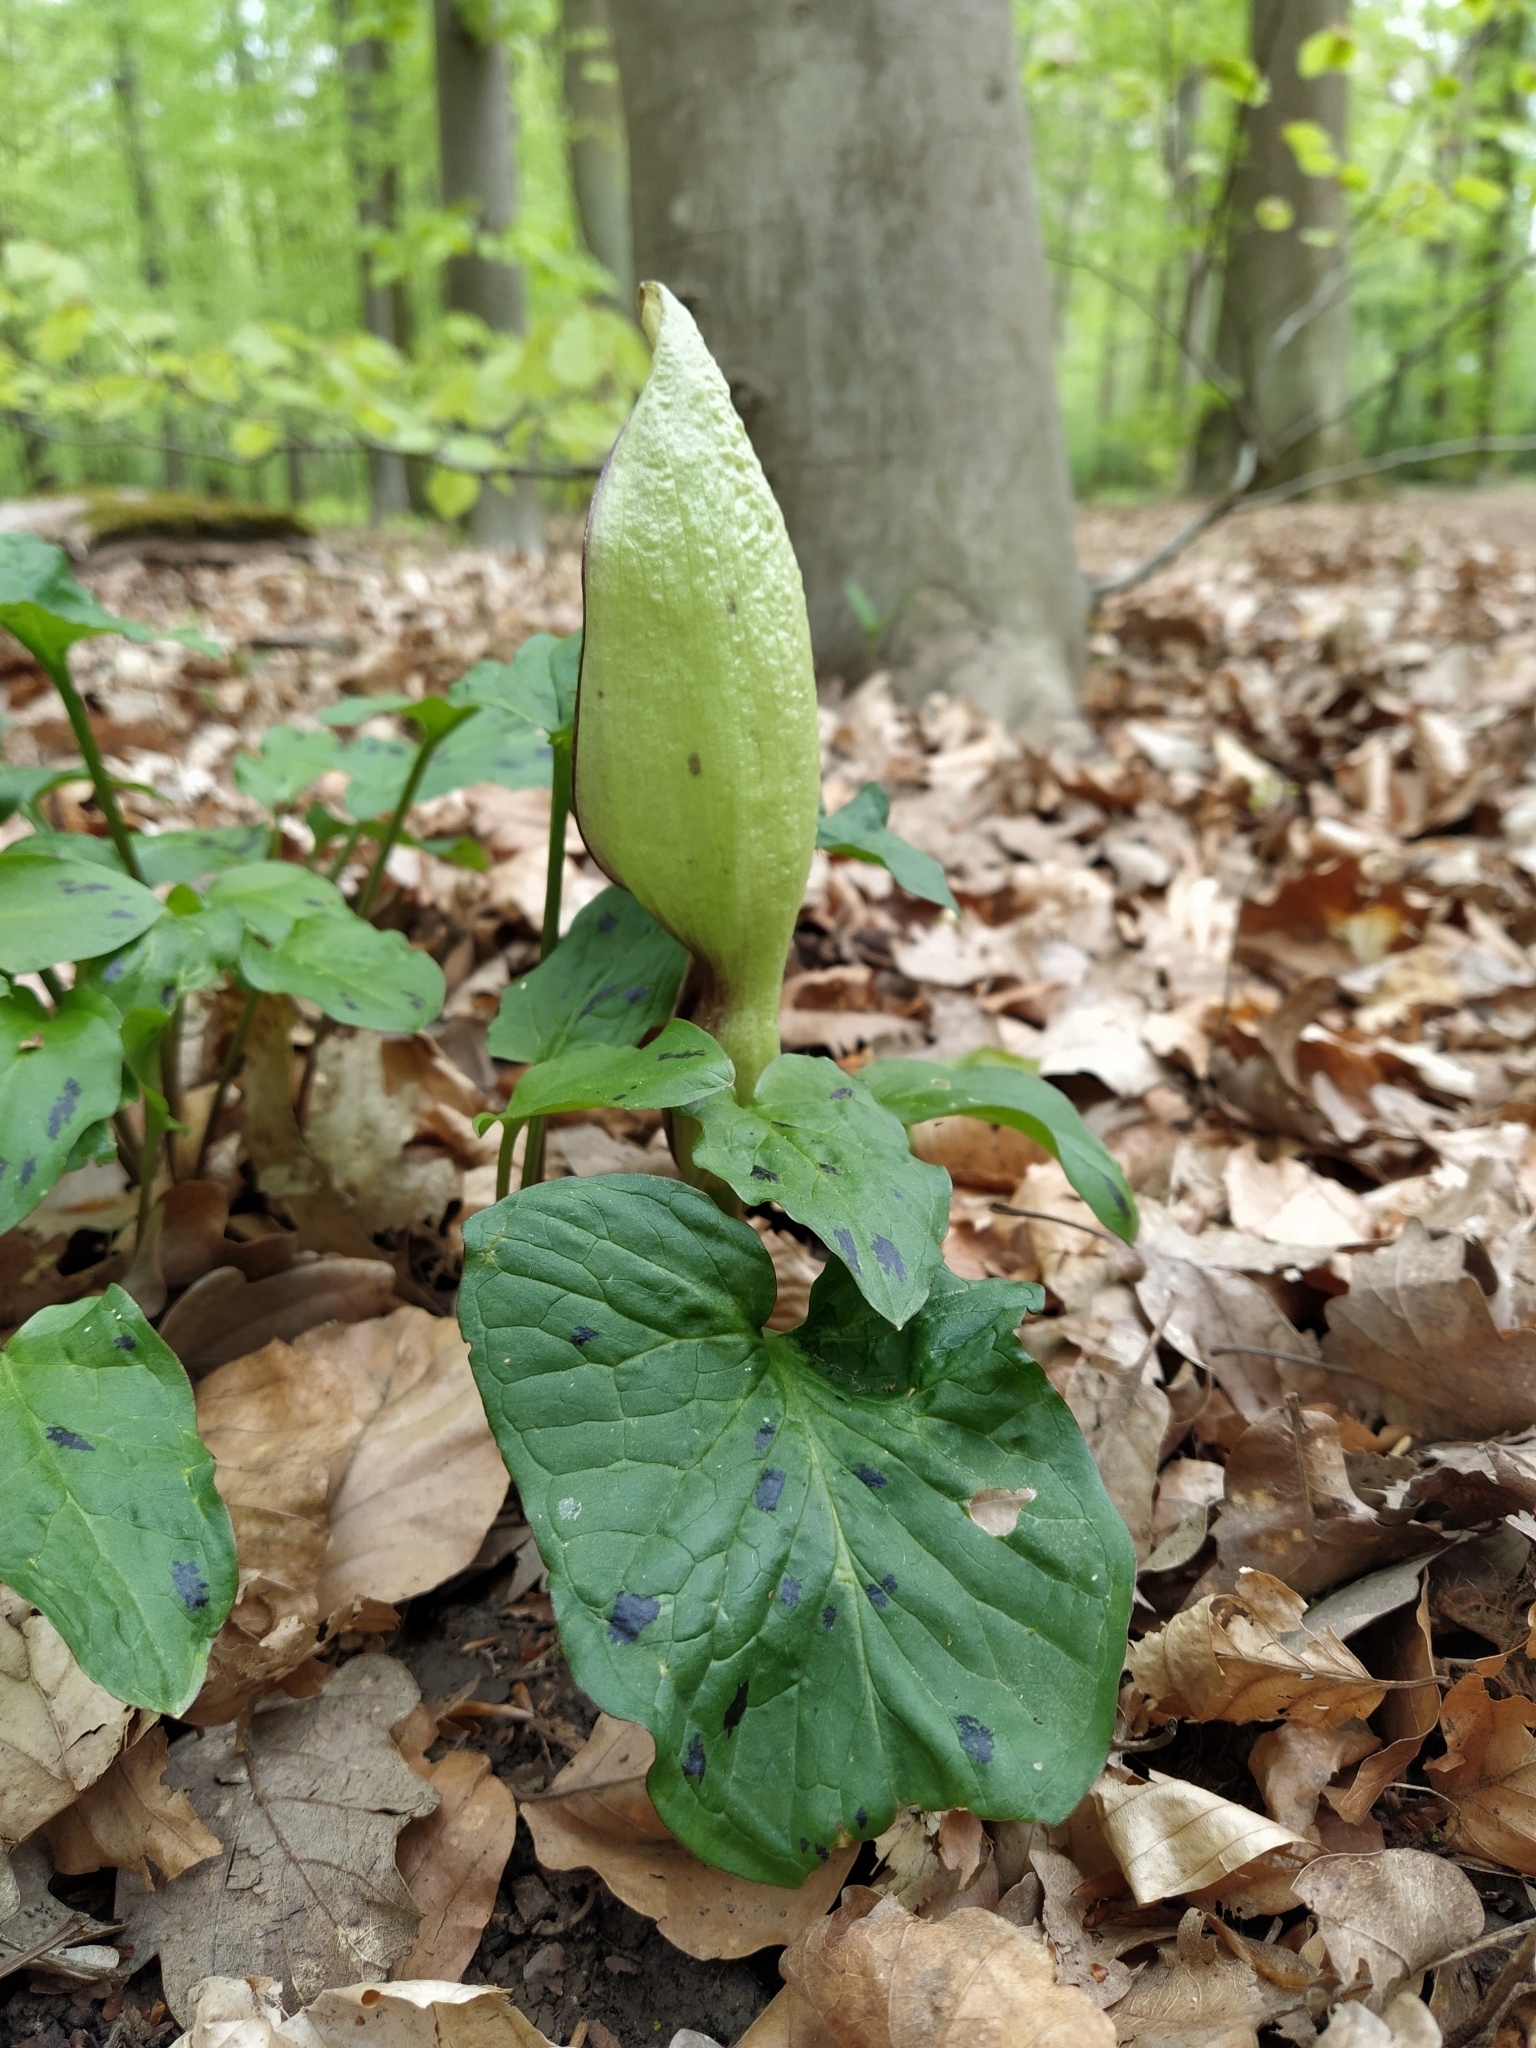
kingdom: Plantae
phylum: Tracheophyta
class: Liliopsida
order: Alismatales
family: Araceae
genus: Arum
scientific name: Arum maculatum
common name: Lords-and-ladies
